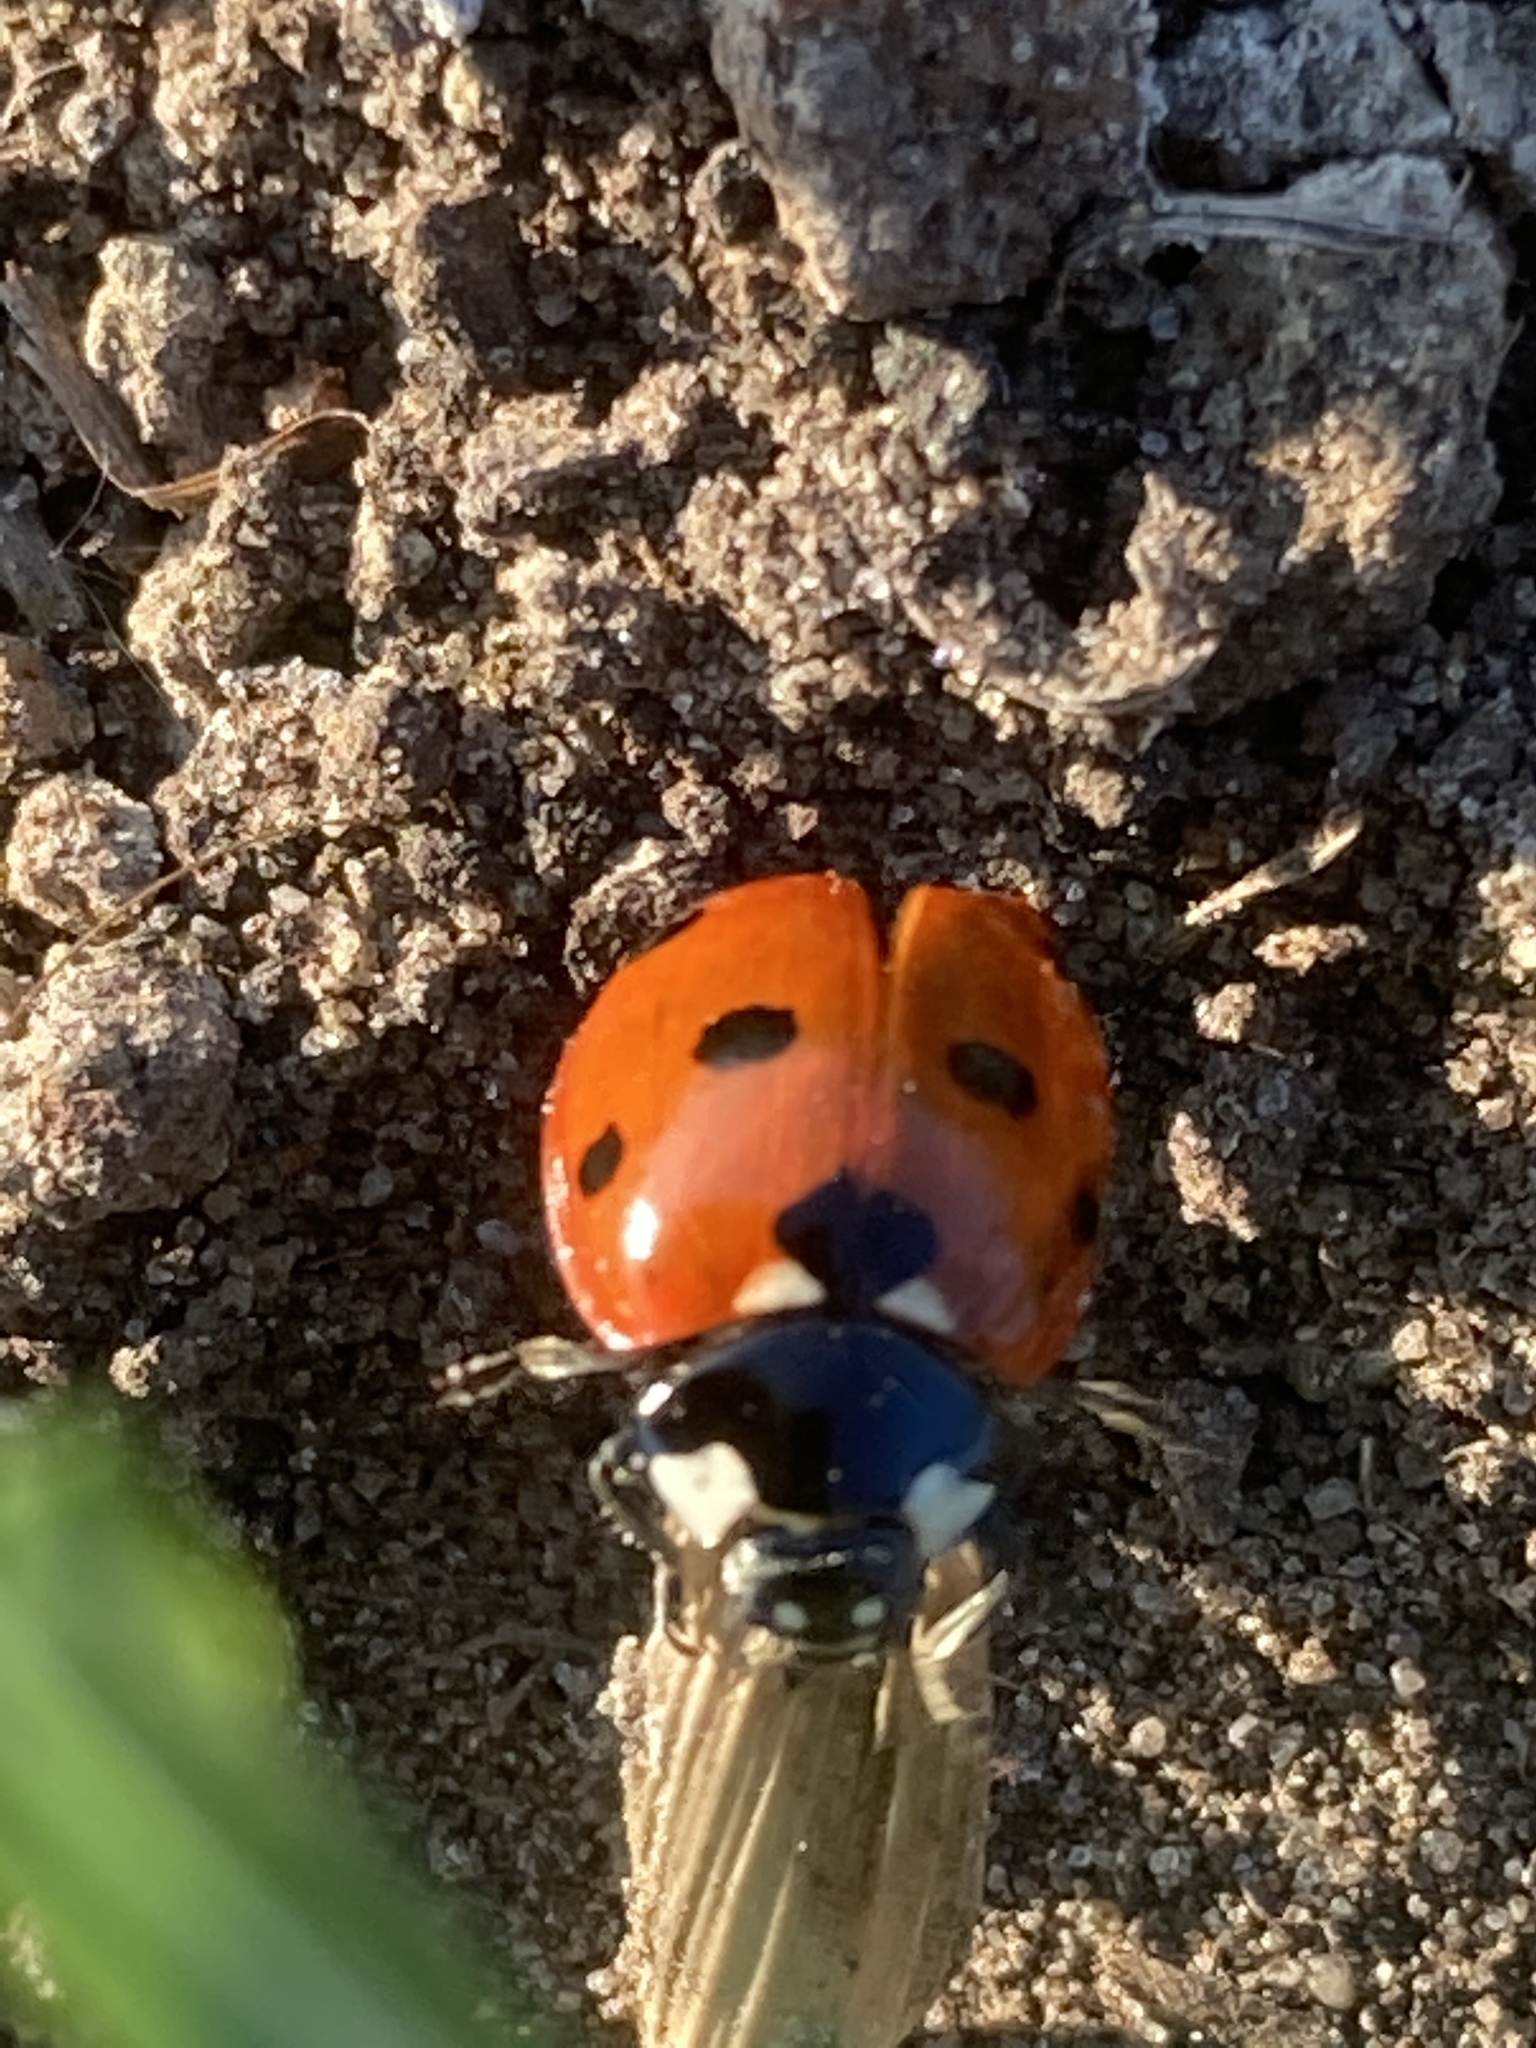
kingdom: Animalia
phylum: Arthropoda
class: Insecta
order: Coleoptera
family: Coccinellidae
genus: Coccinella
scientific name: Coccinella septempunctata
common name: Sevenspotted lady beetle
